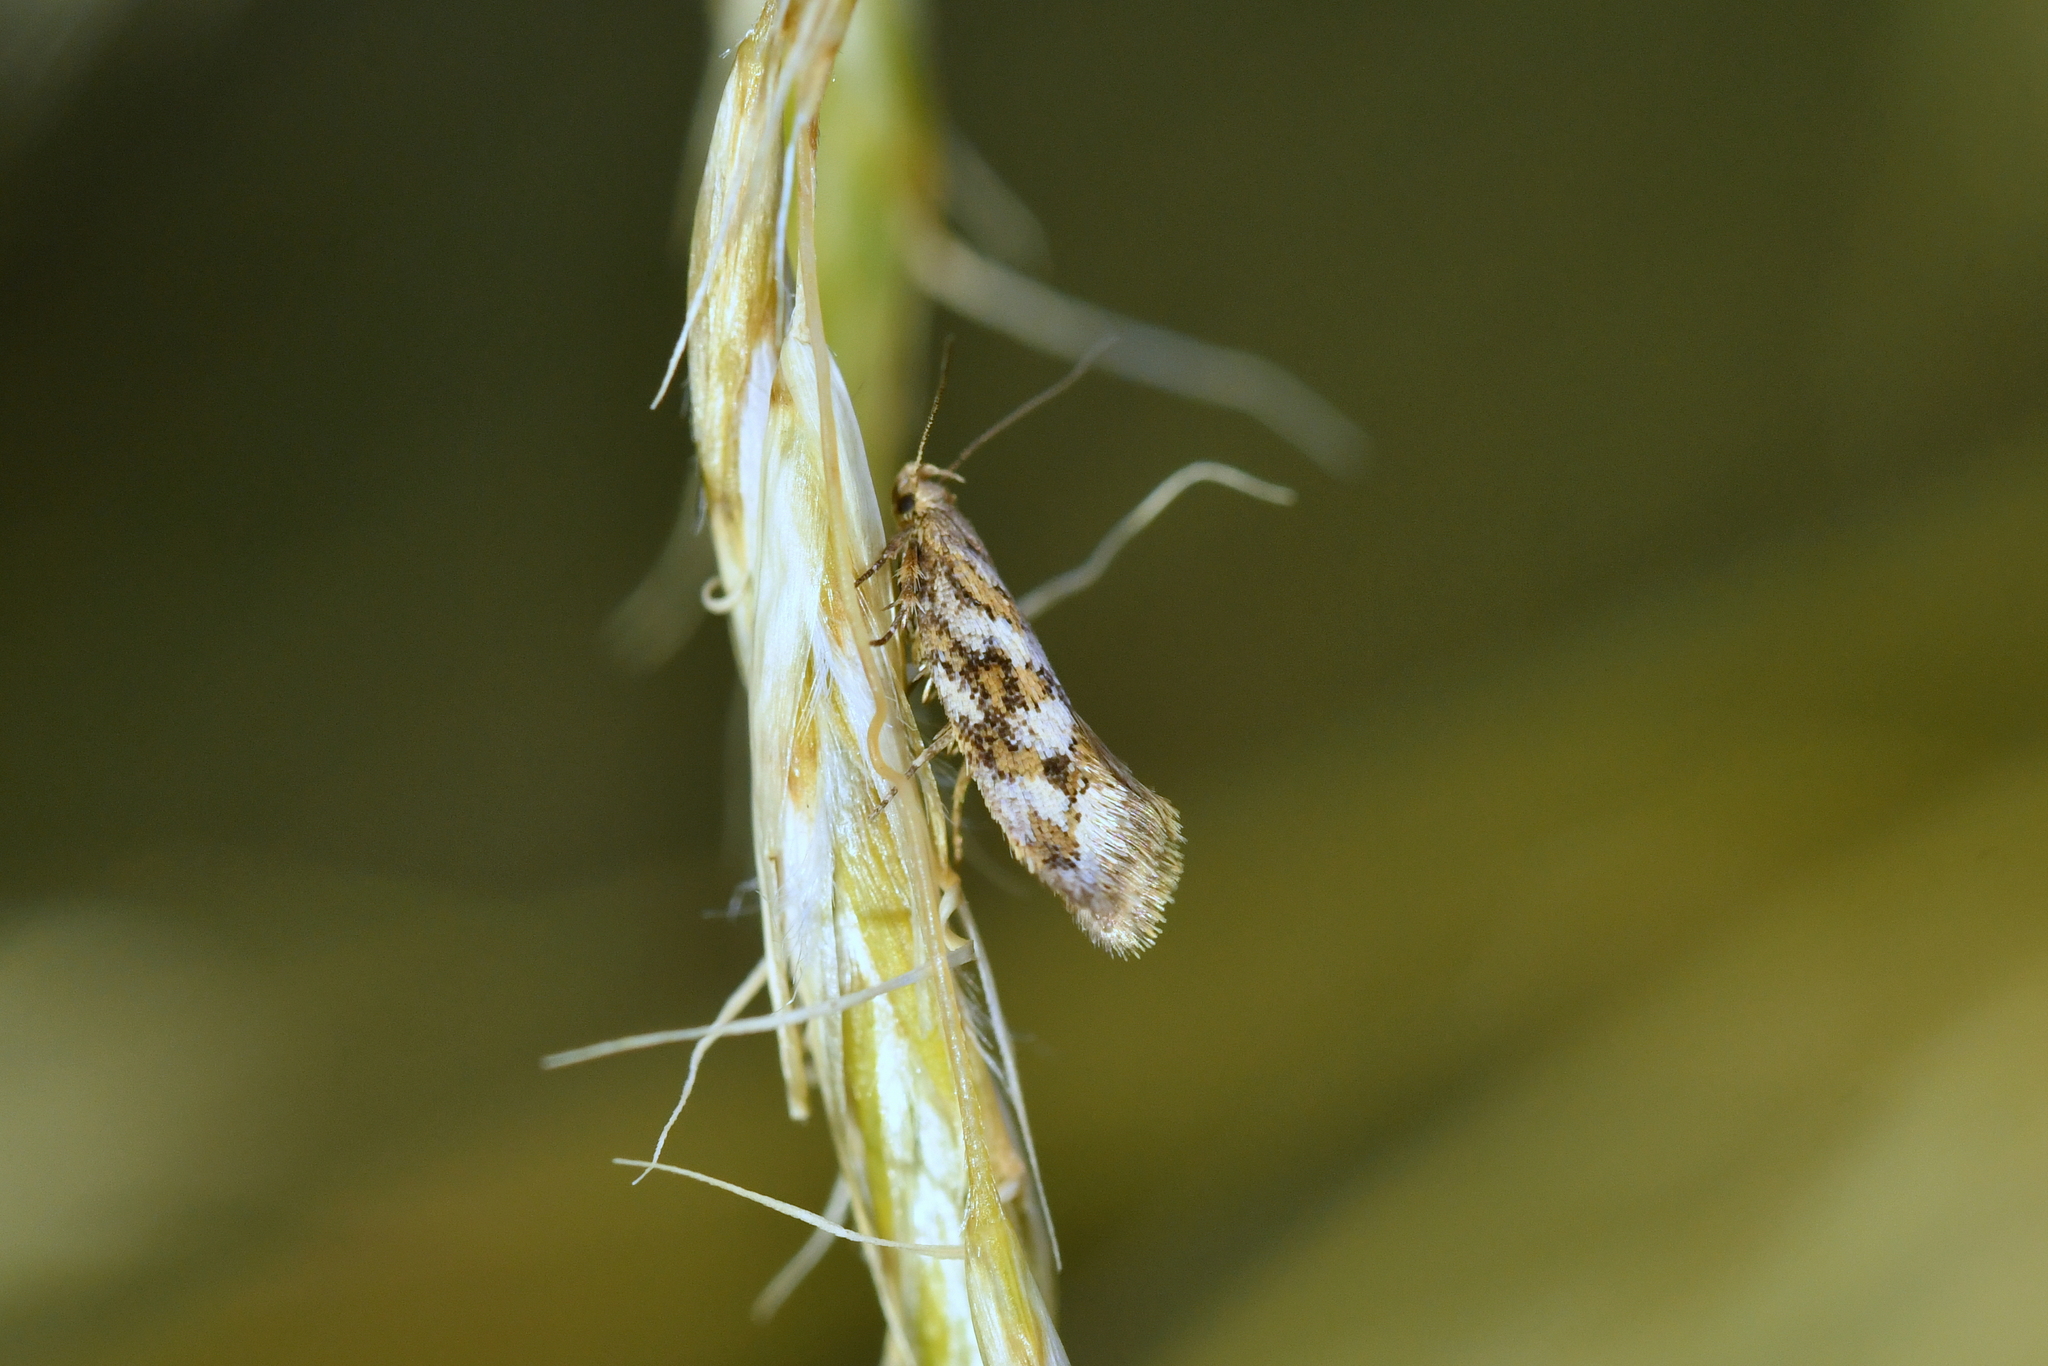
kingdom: Animalia
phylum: Arthropoda
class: Insecta
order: Lepidoptera
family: Oecophoridae
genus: Tingena
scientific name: Tingena xanthomicta
